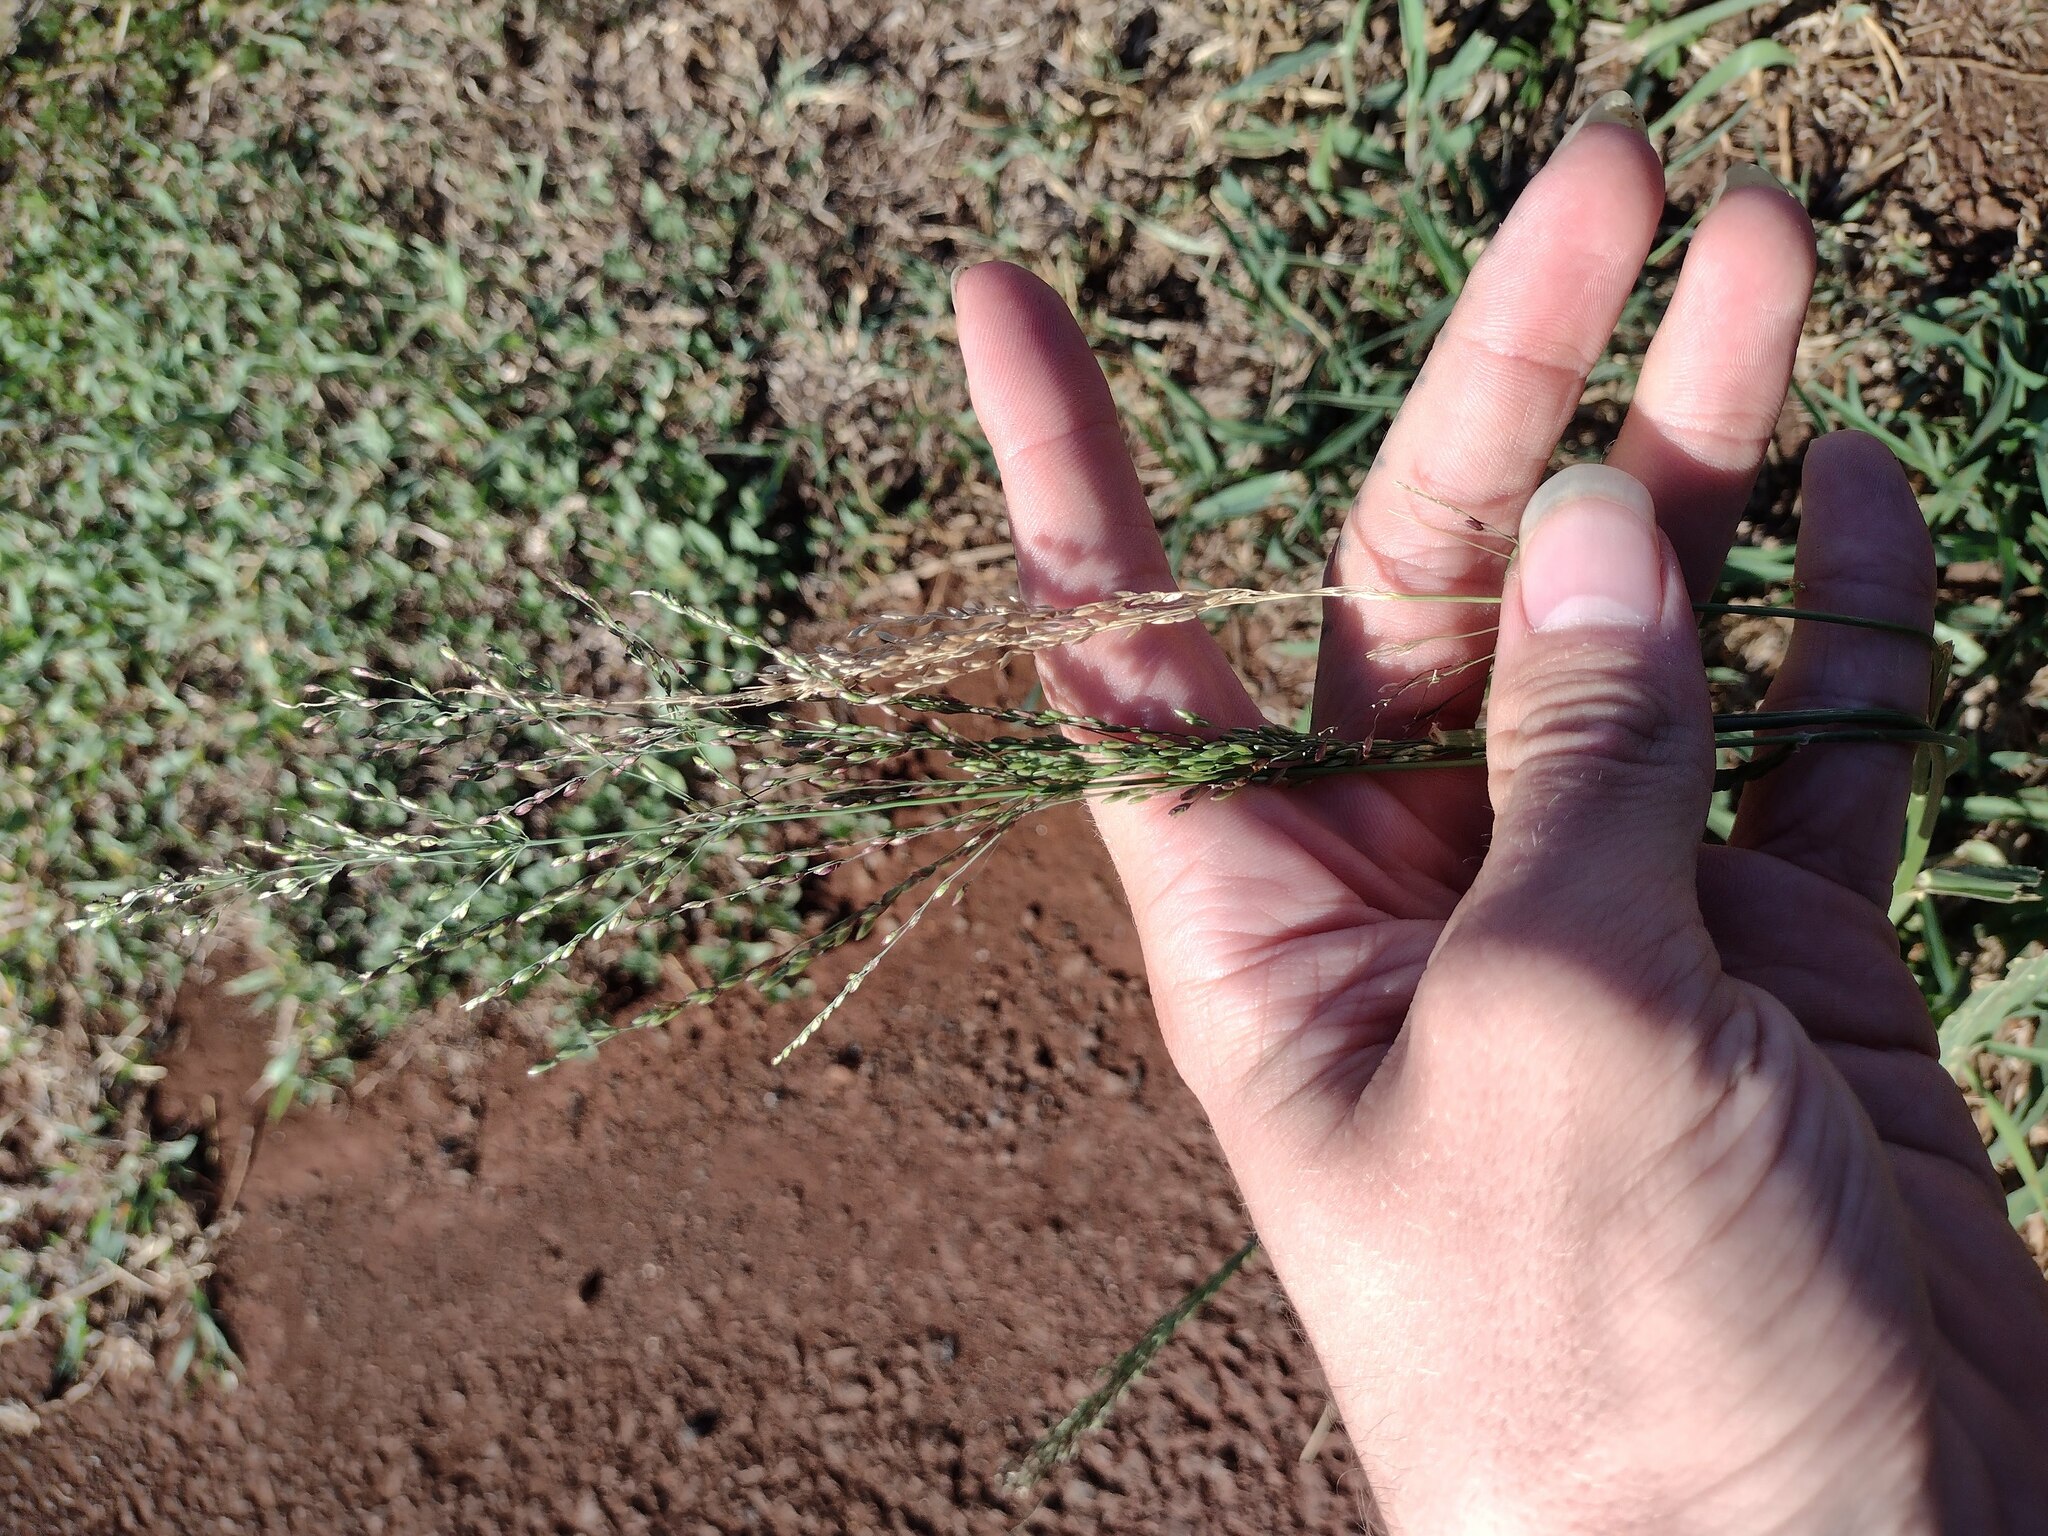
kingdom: Plantae
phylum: Tracheophyta
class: Liliopsida
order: Poales
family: Poaceae
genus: Megathyrsus
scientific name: Megathyrsus maximus
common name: Guineagrass
